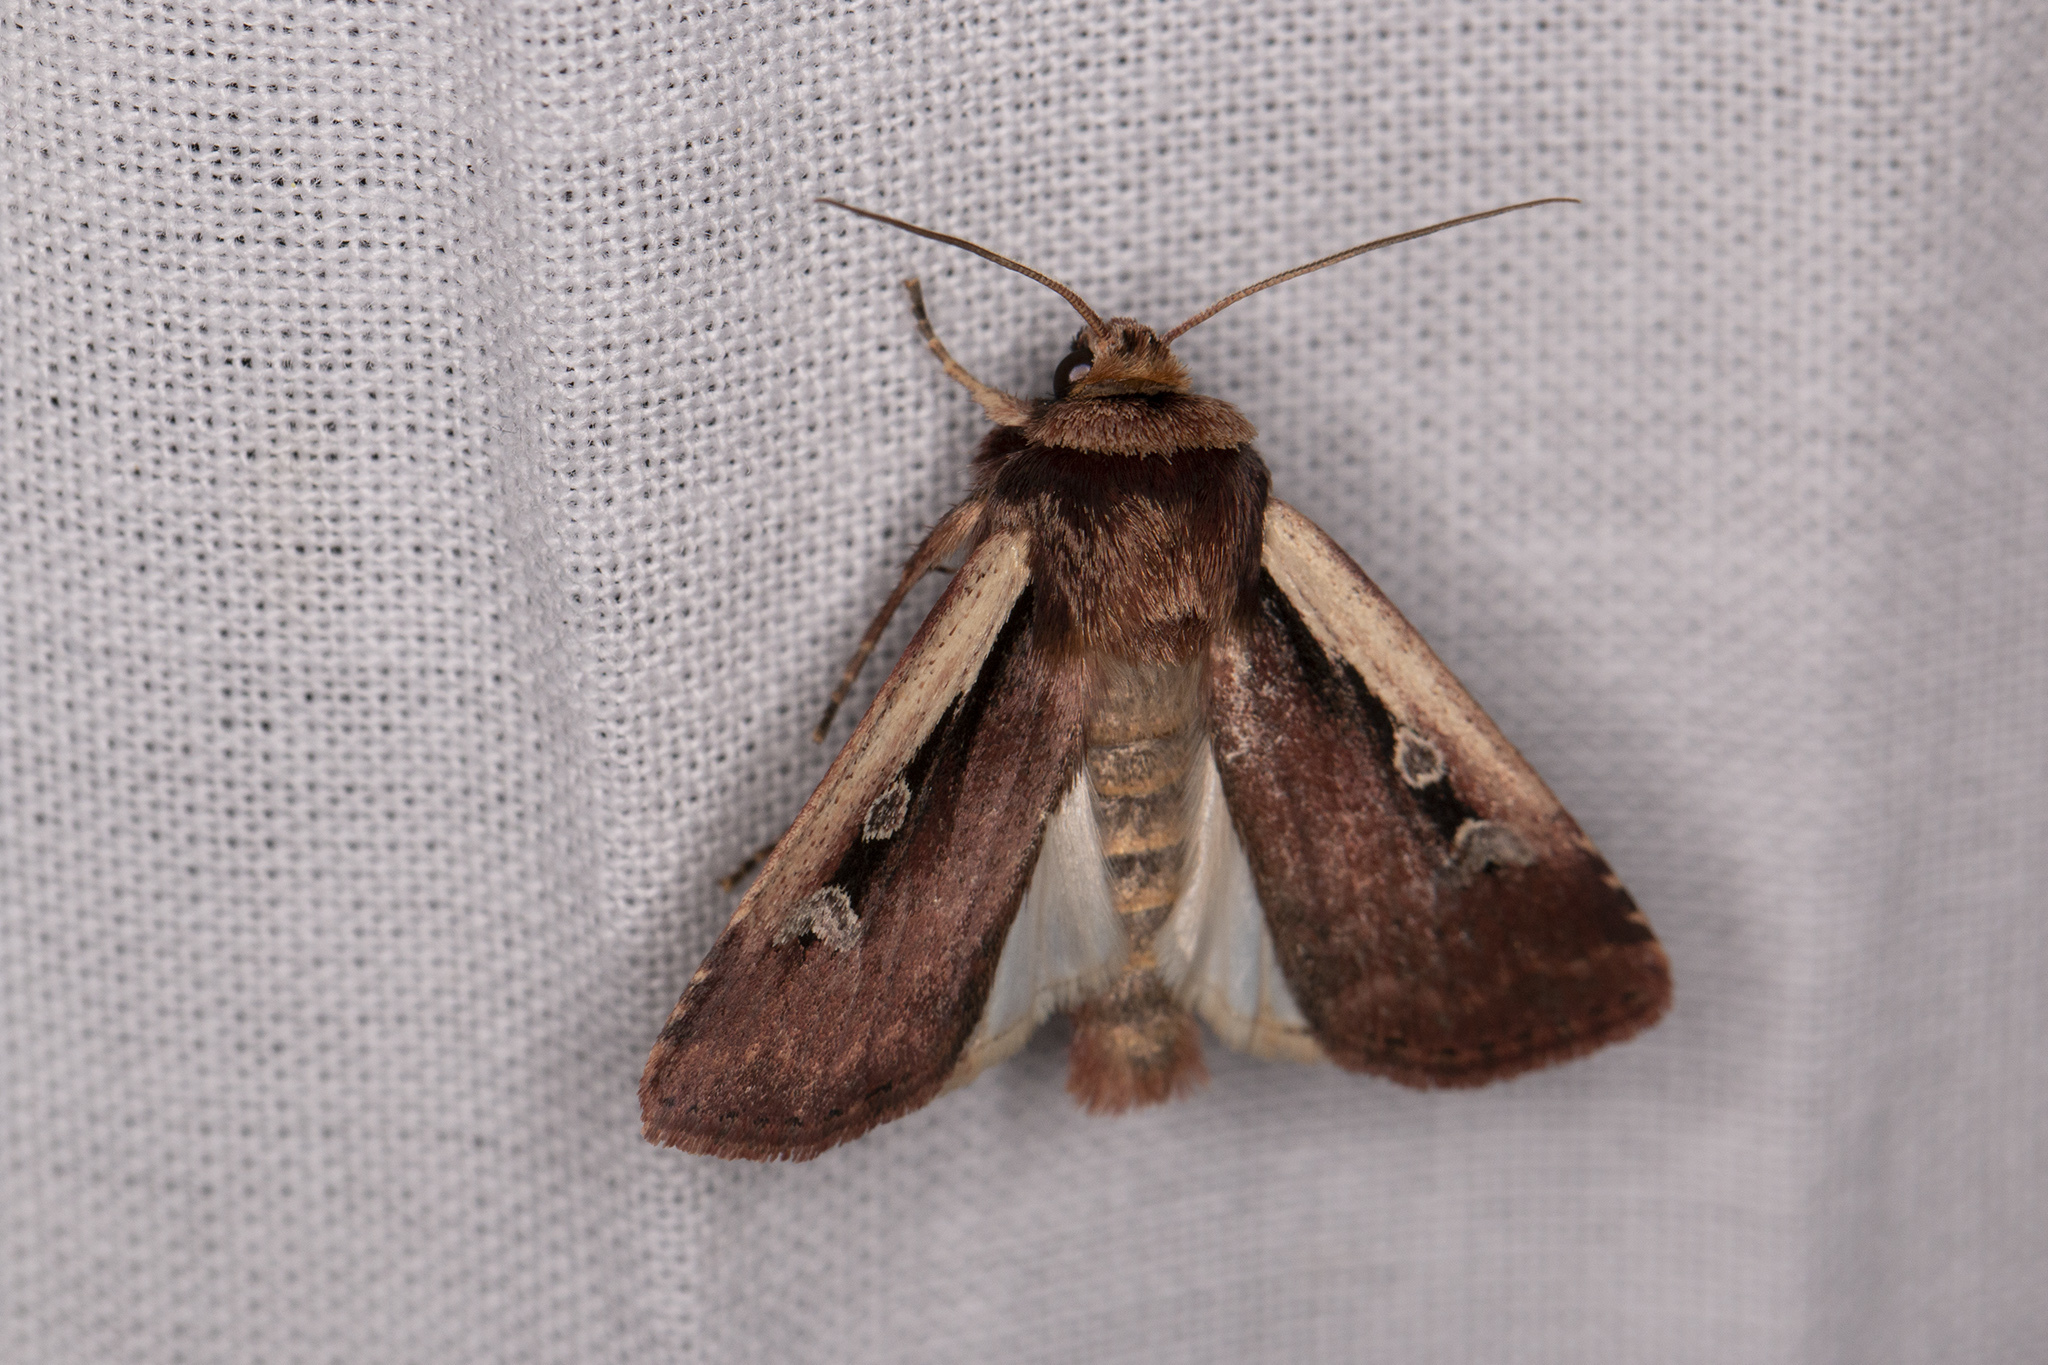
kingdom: Animalia
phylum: Arthropoda
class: Insecta
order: Lepidoptera
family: Noctuidae
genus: Ochropleura
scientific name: Ochropleura plecta
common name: Flame shoulder
